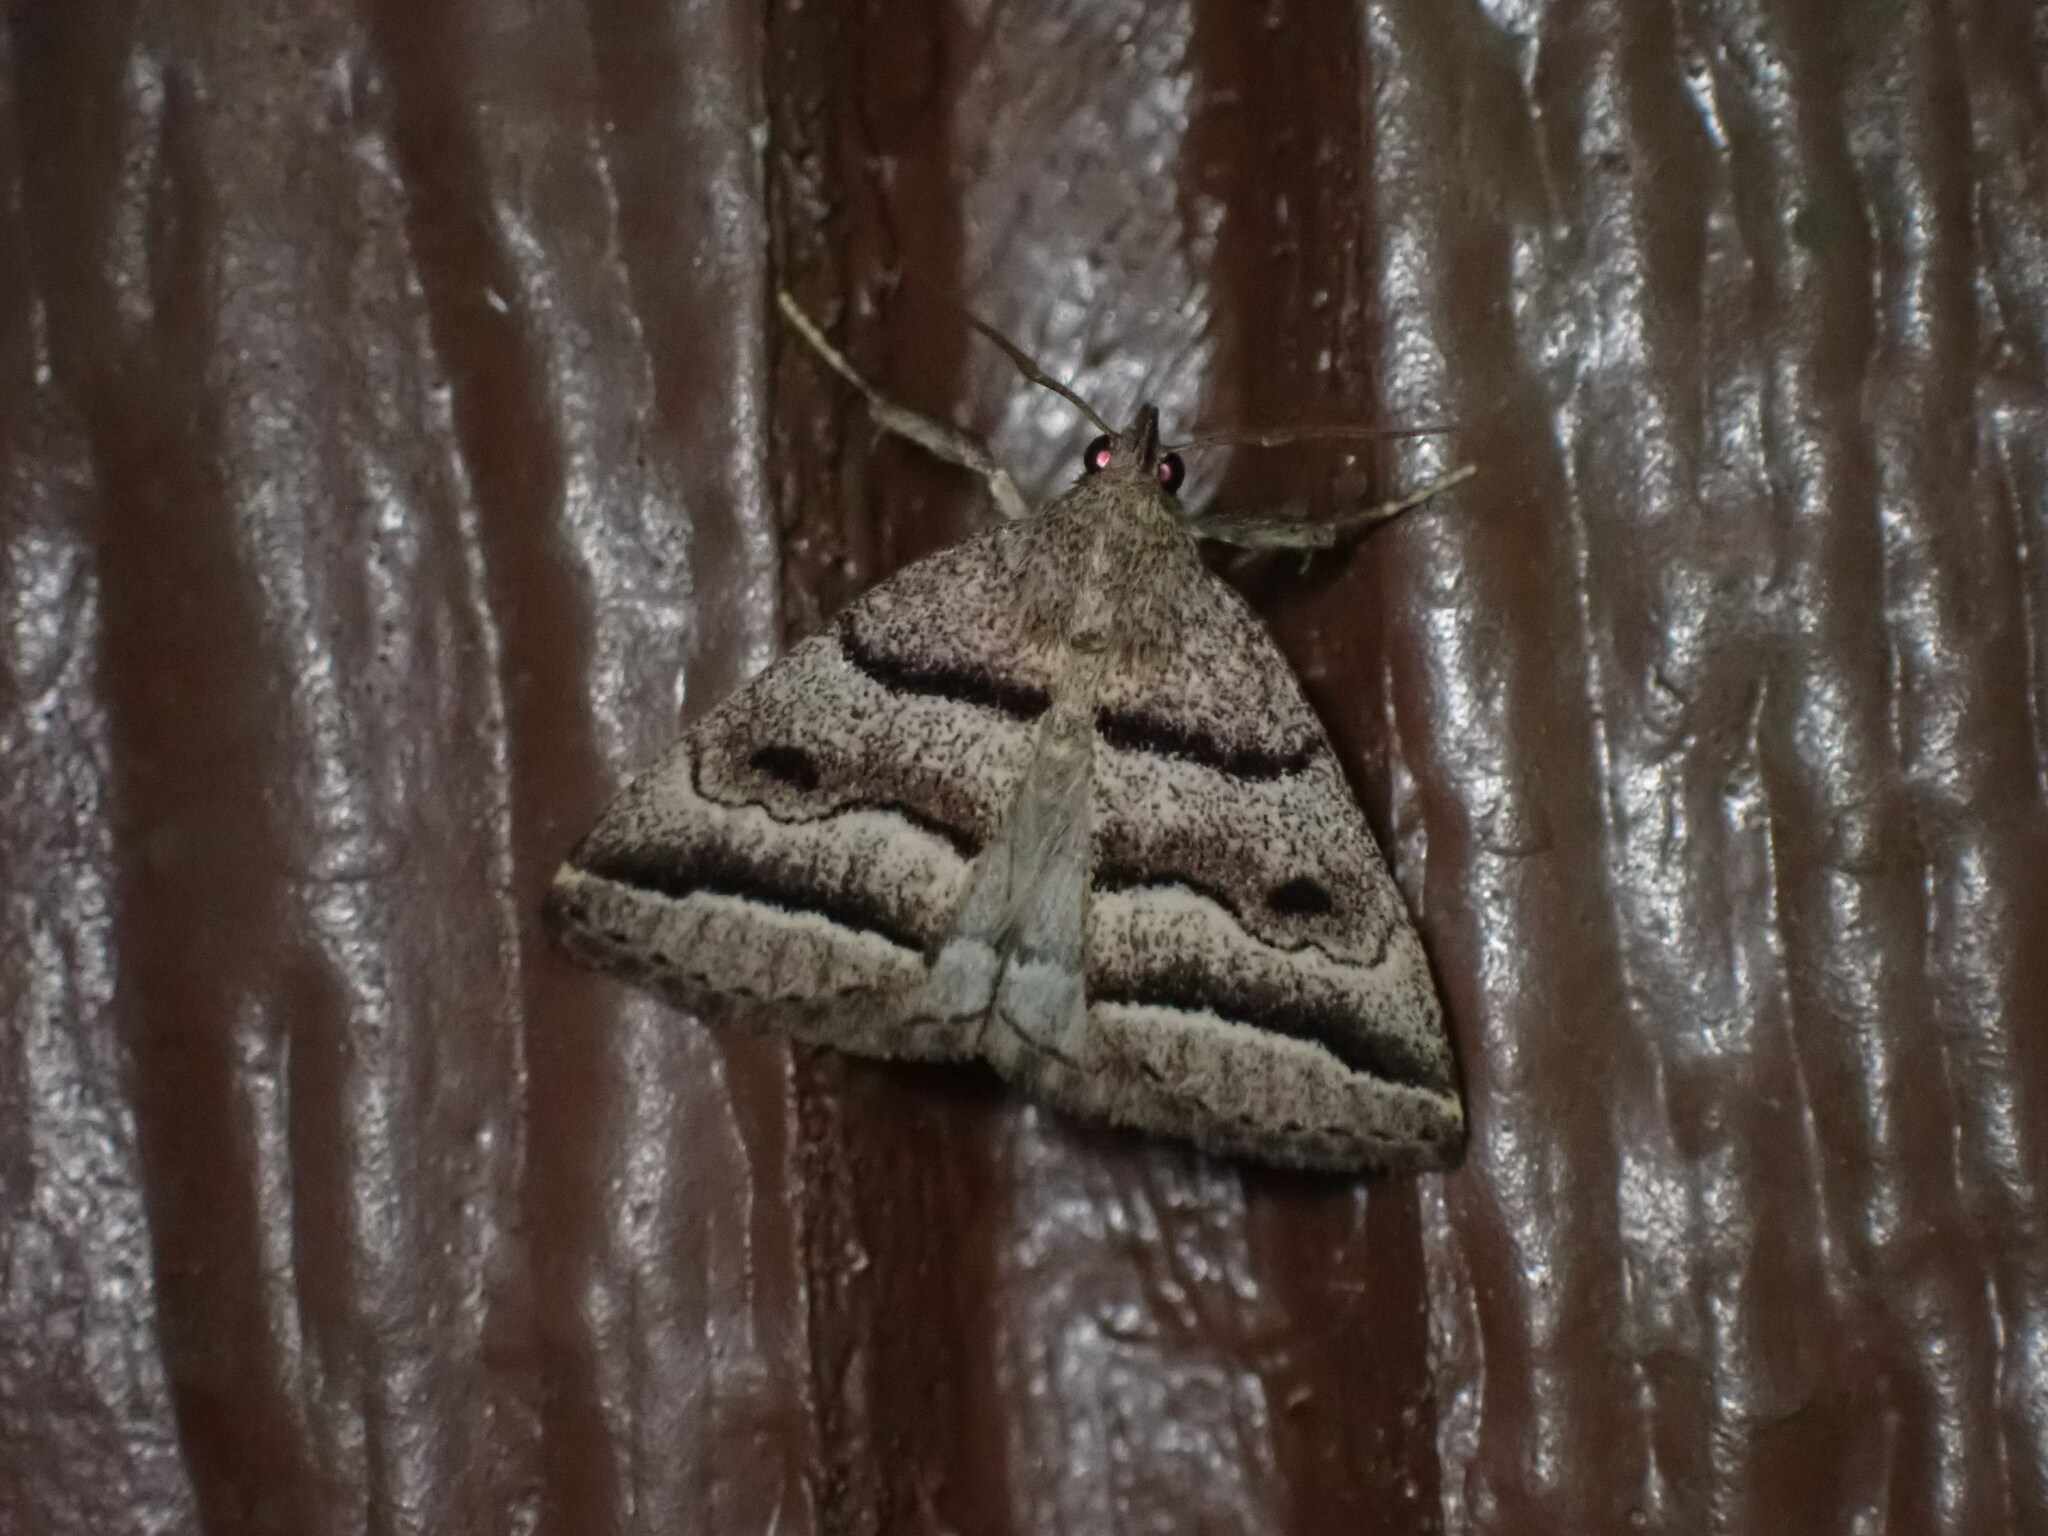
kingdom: Animalia
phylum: Arthropoda
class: Insecta
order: Lepidoptera
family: Erebidae
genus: Zanclognatha
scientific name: Zanclognatha atrilineella
